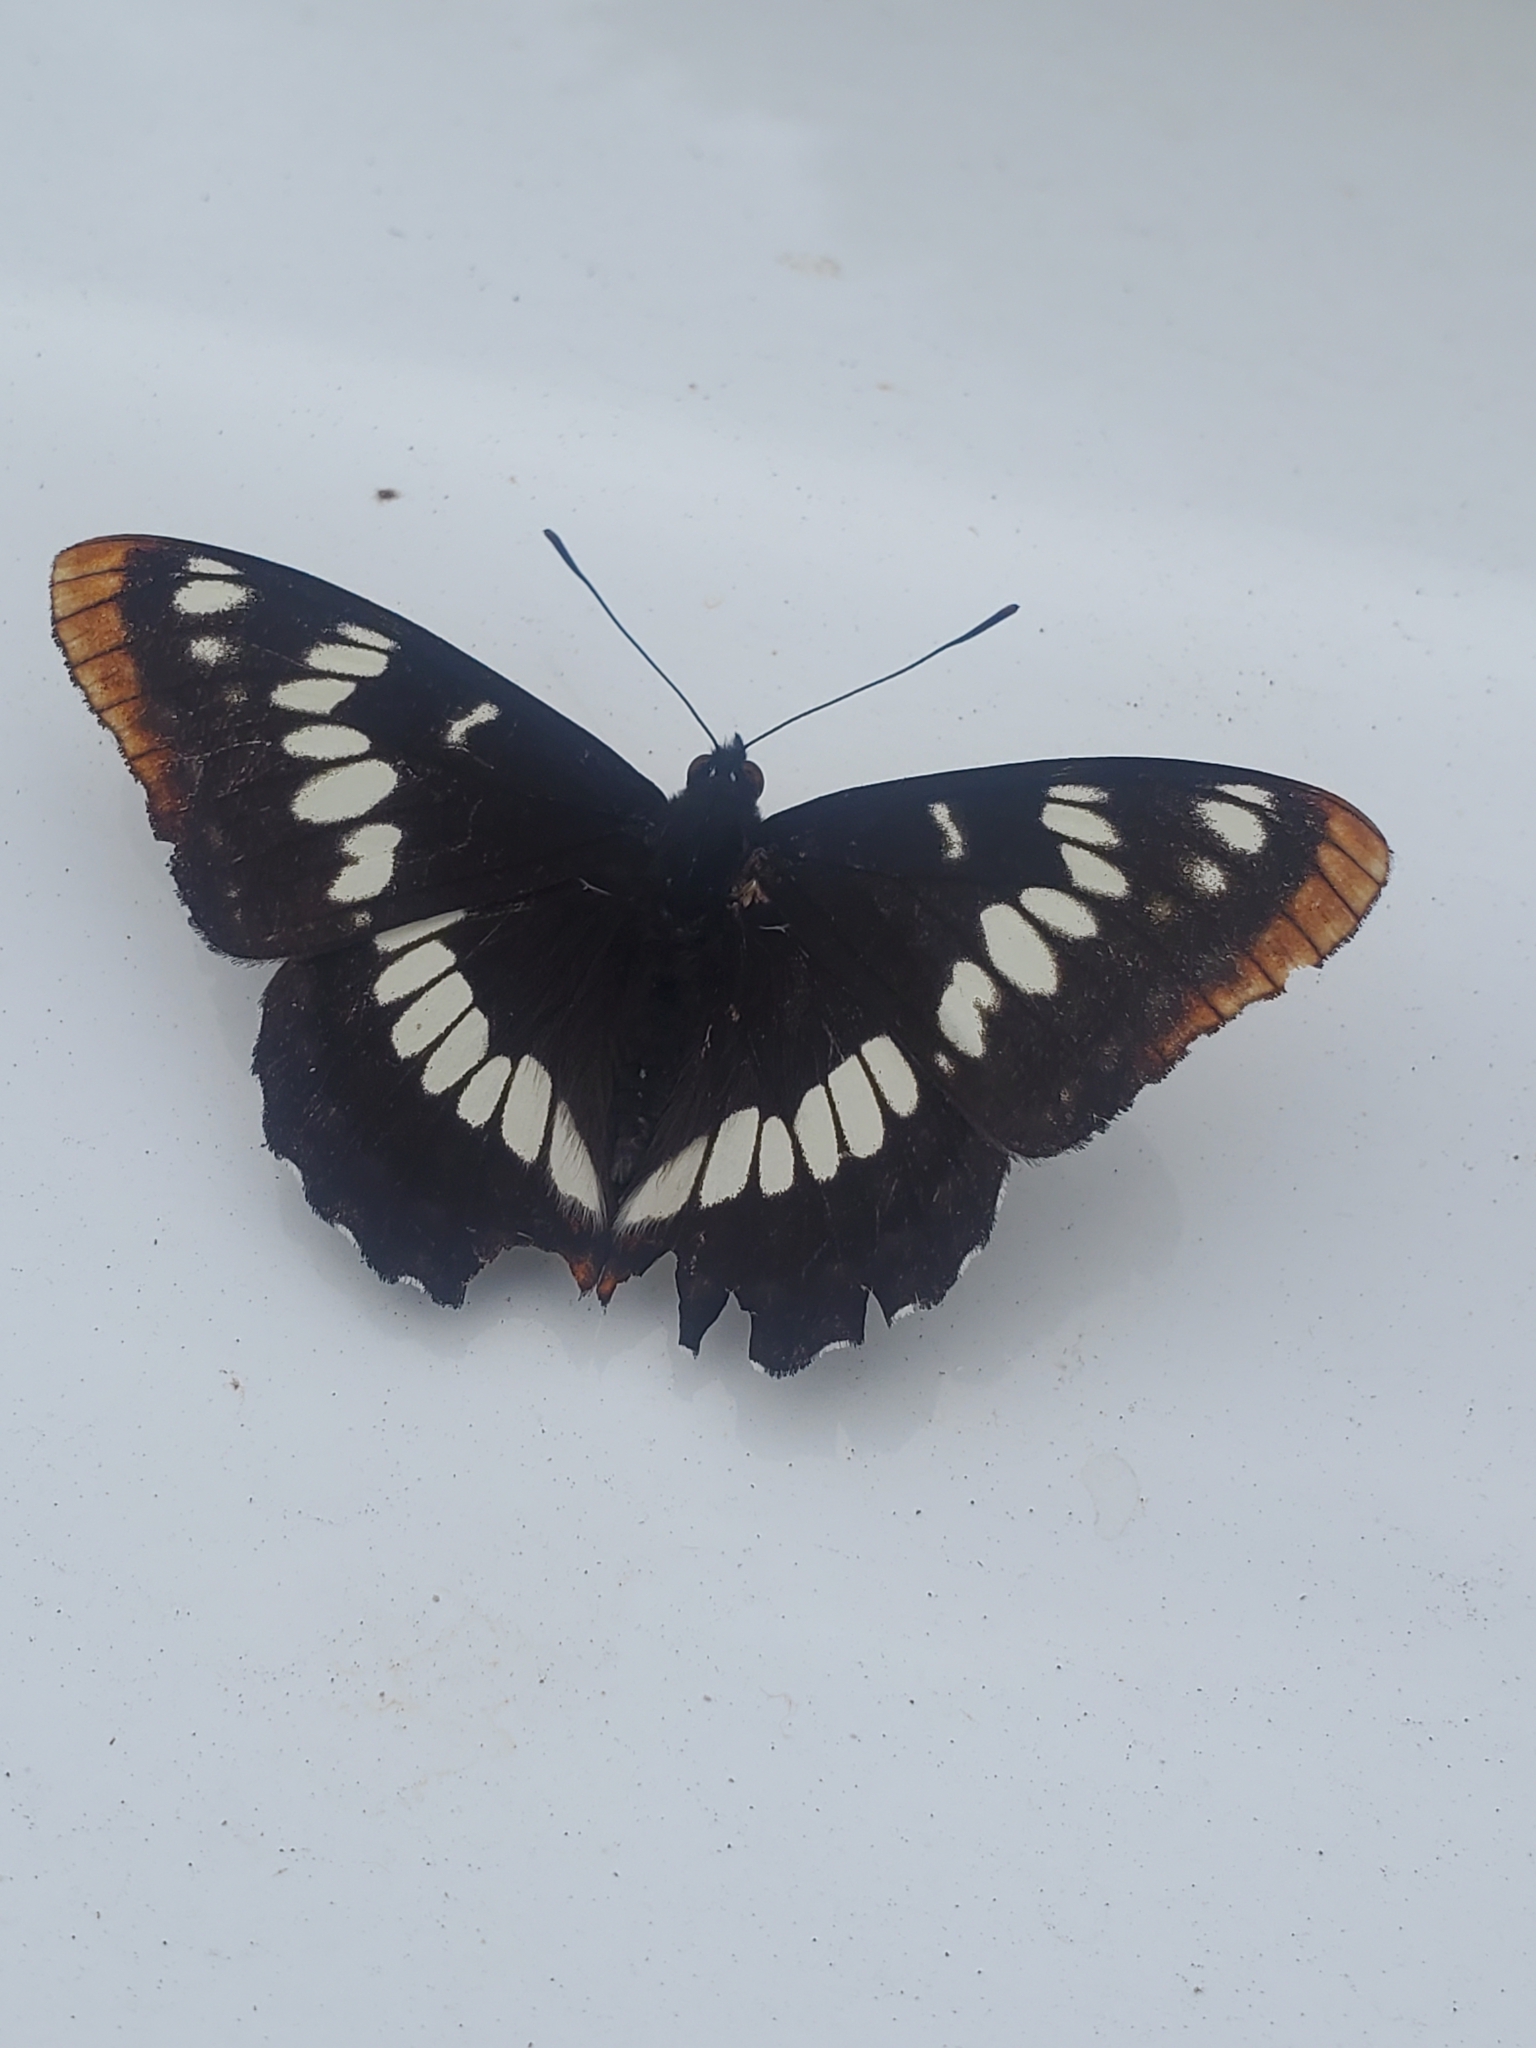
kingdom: Animalia
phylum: Arthropoda
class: Insecta
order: Lepidoptera
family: Nymphalidae
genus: Limenitis
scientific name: Limenitis lorquini
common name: Lorquin's admiral
